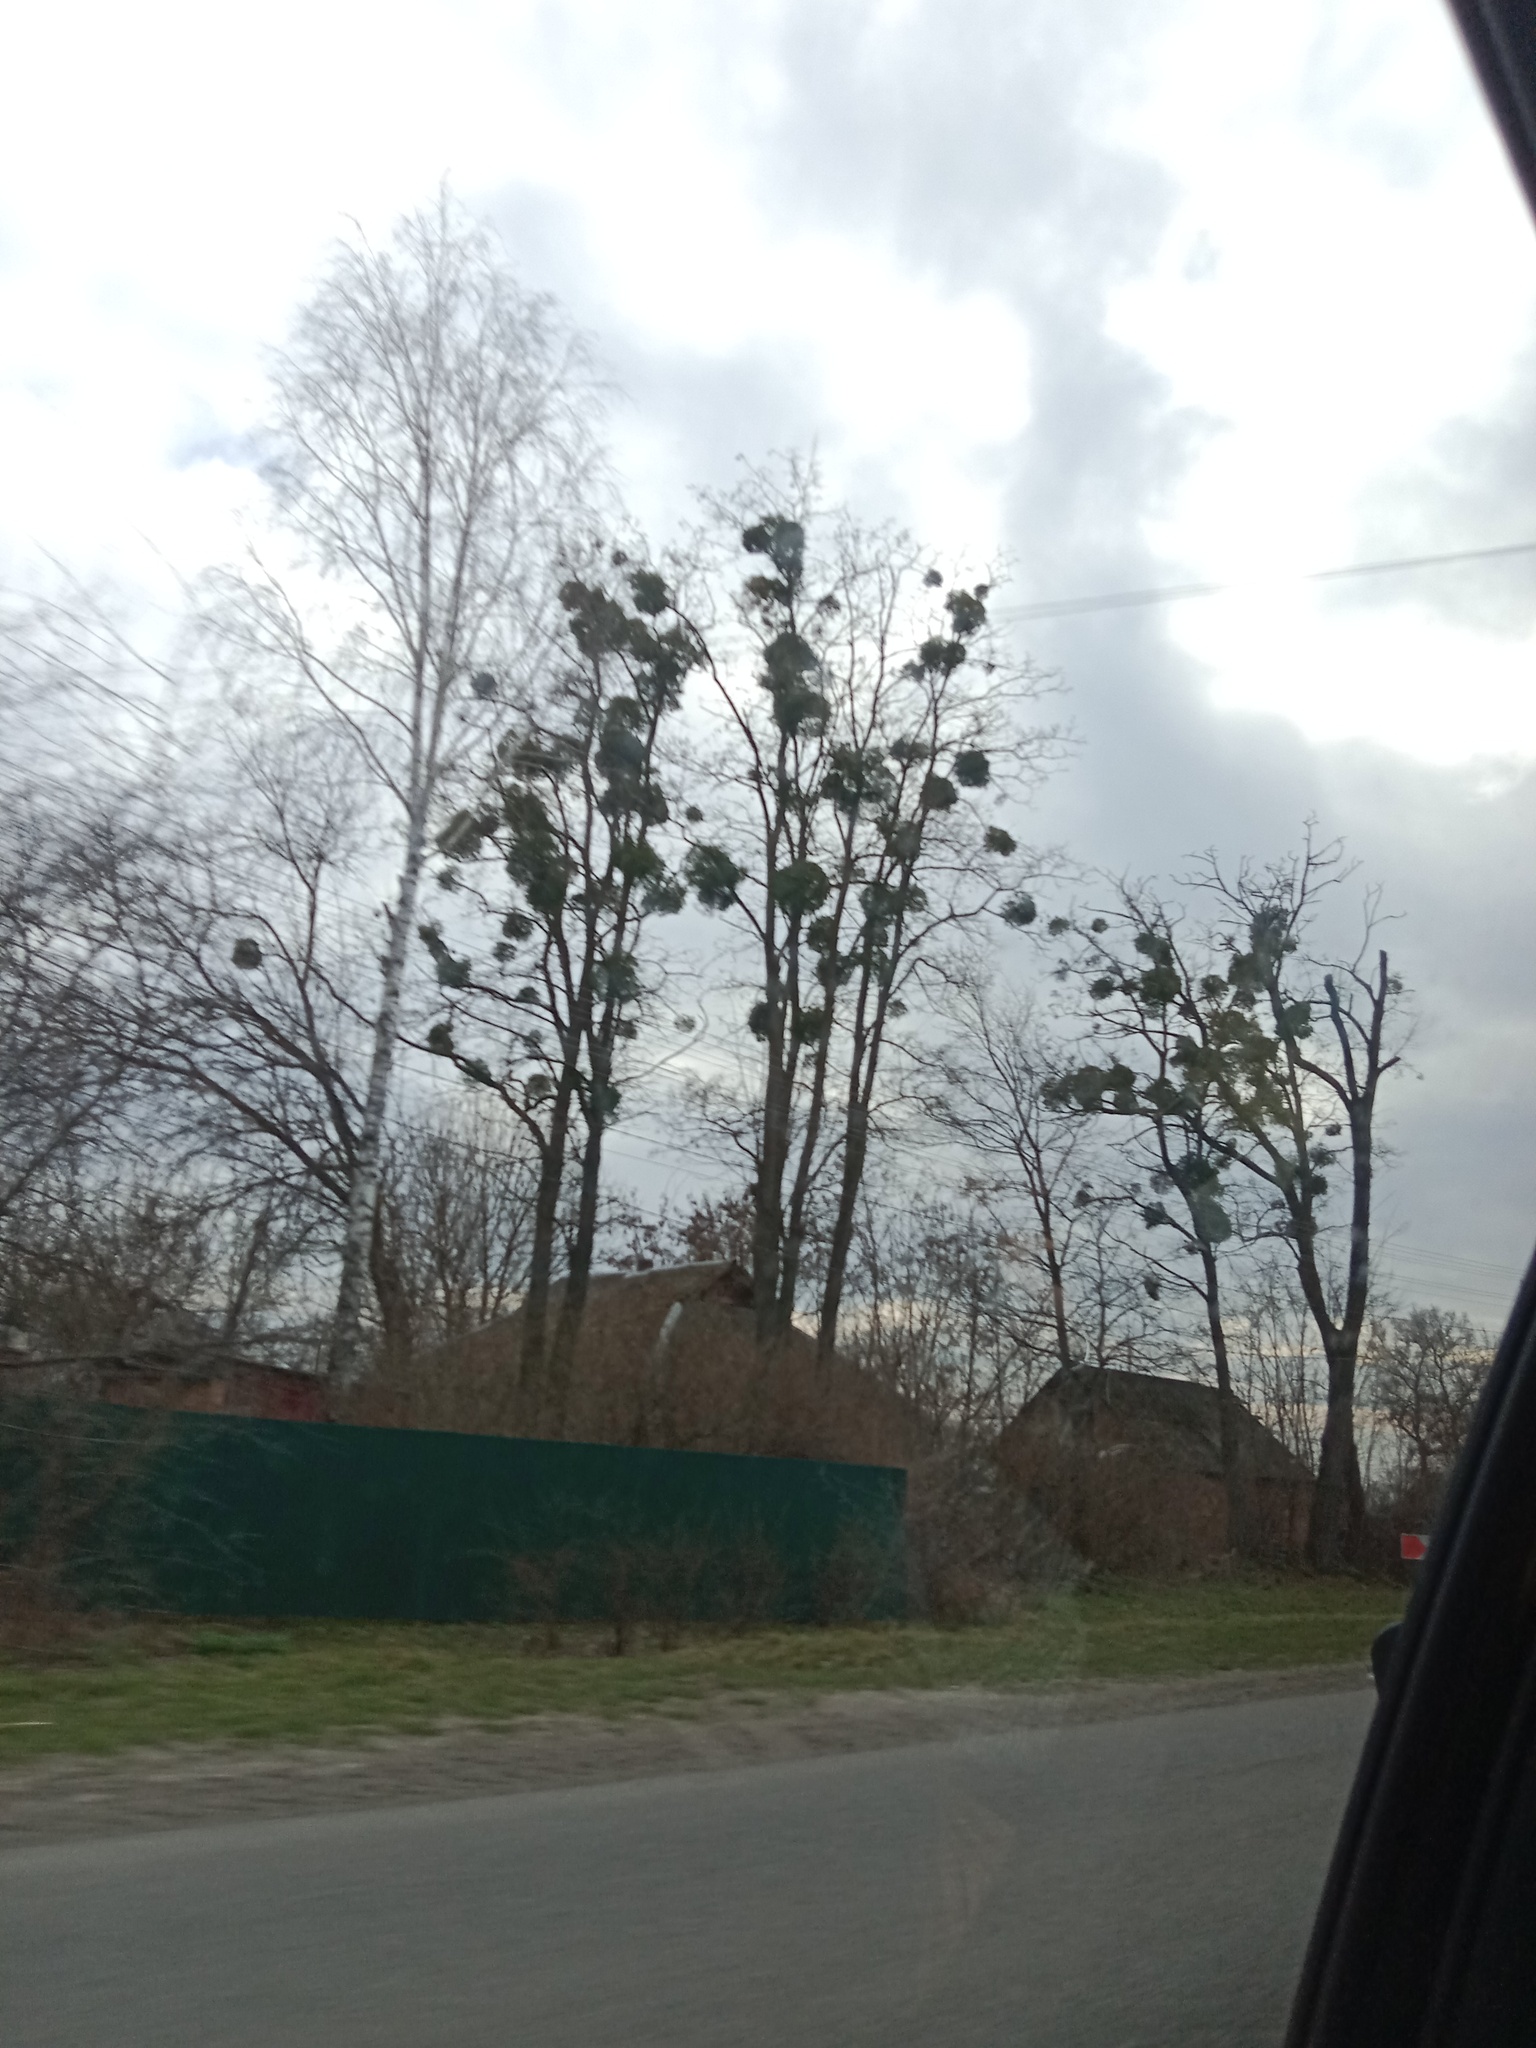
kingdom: Plantae
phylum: Tracheophyta
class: Magnoliopsida
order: Santalales
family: Viscaceae
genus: Viscum
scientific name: Viscum album
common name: Mistletoe
